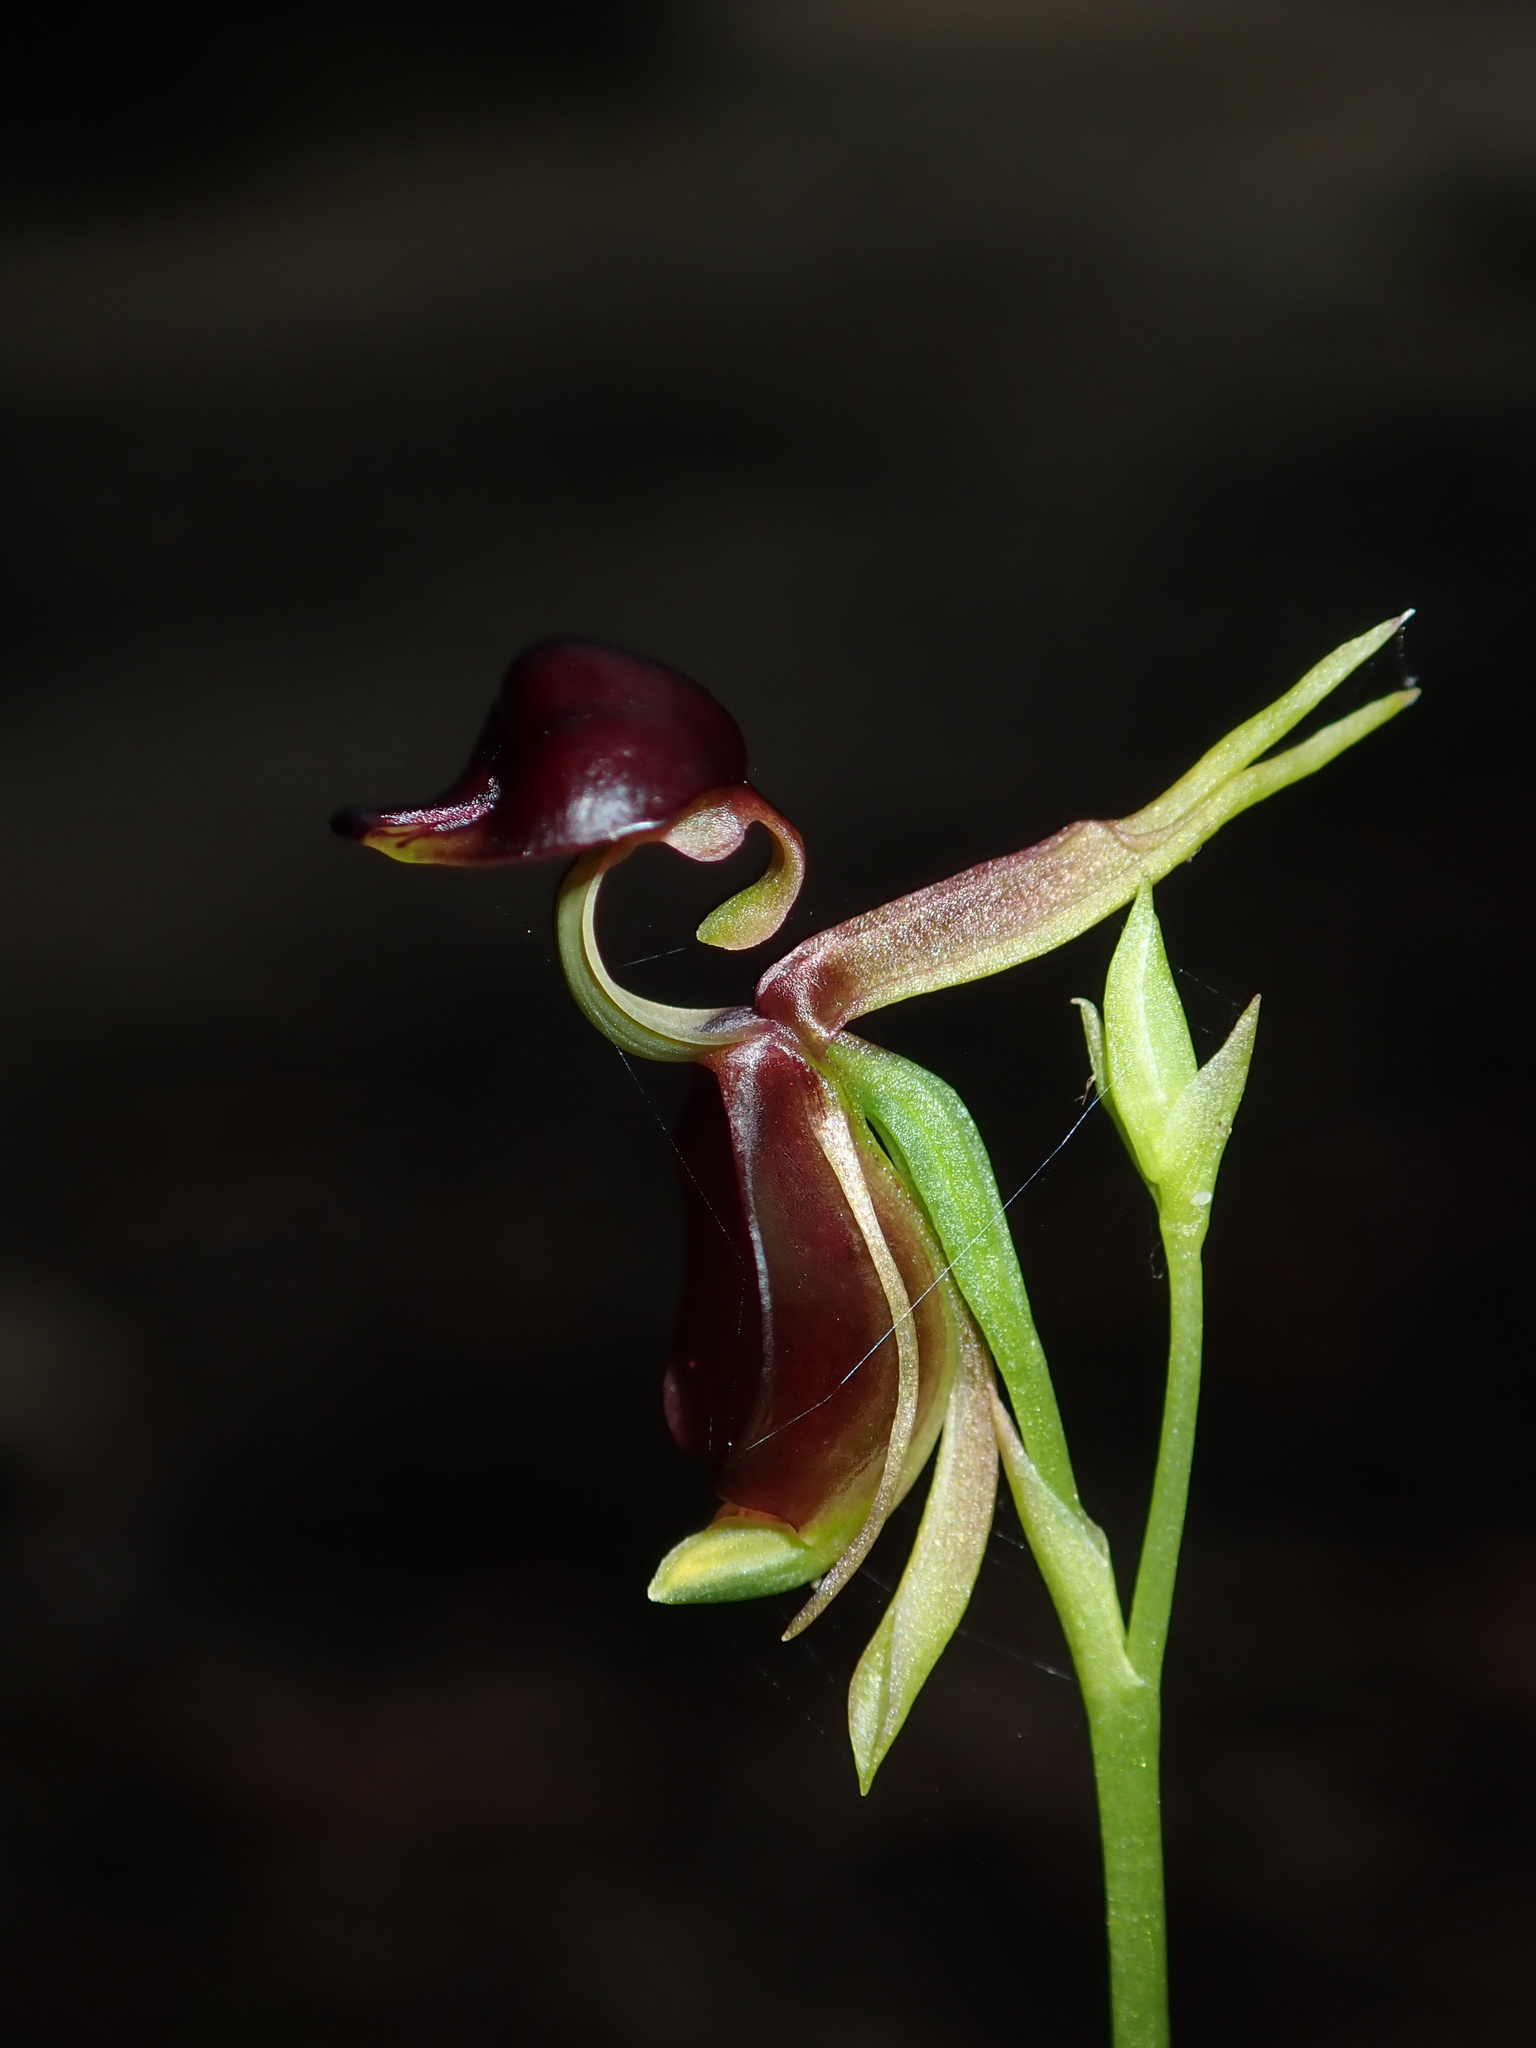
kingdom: Plantae
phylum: Tracheophyta
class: Liliopsida
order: Asparagales
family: Orchidaceae
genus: Caleana
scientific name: Caleana major
